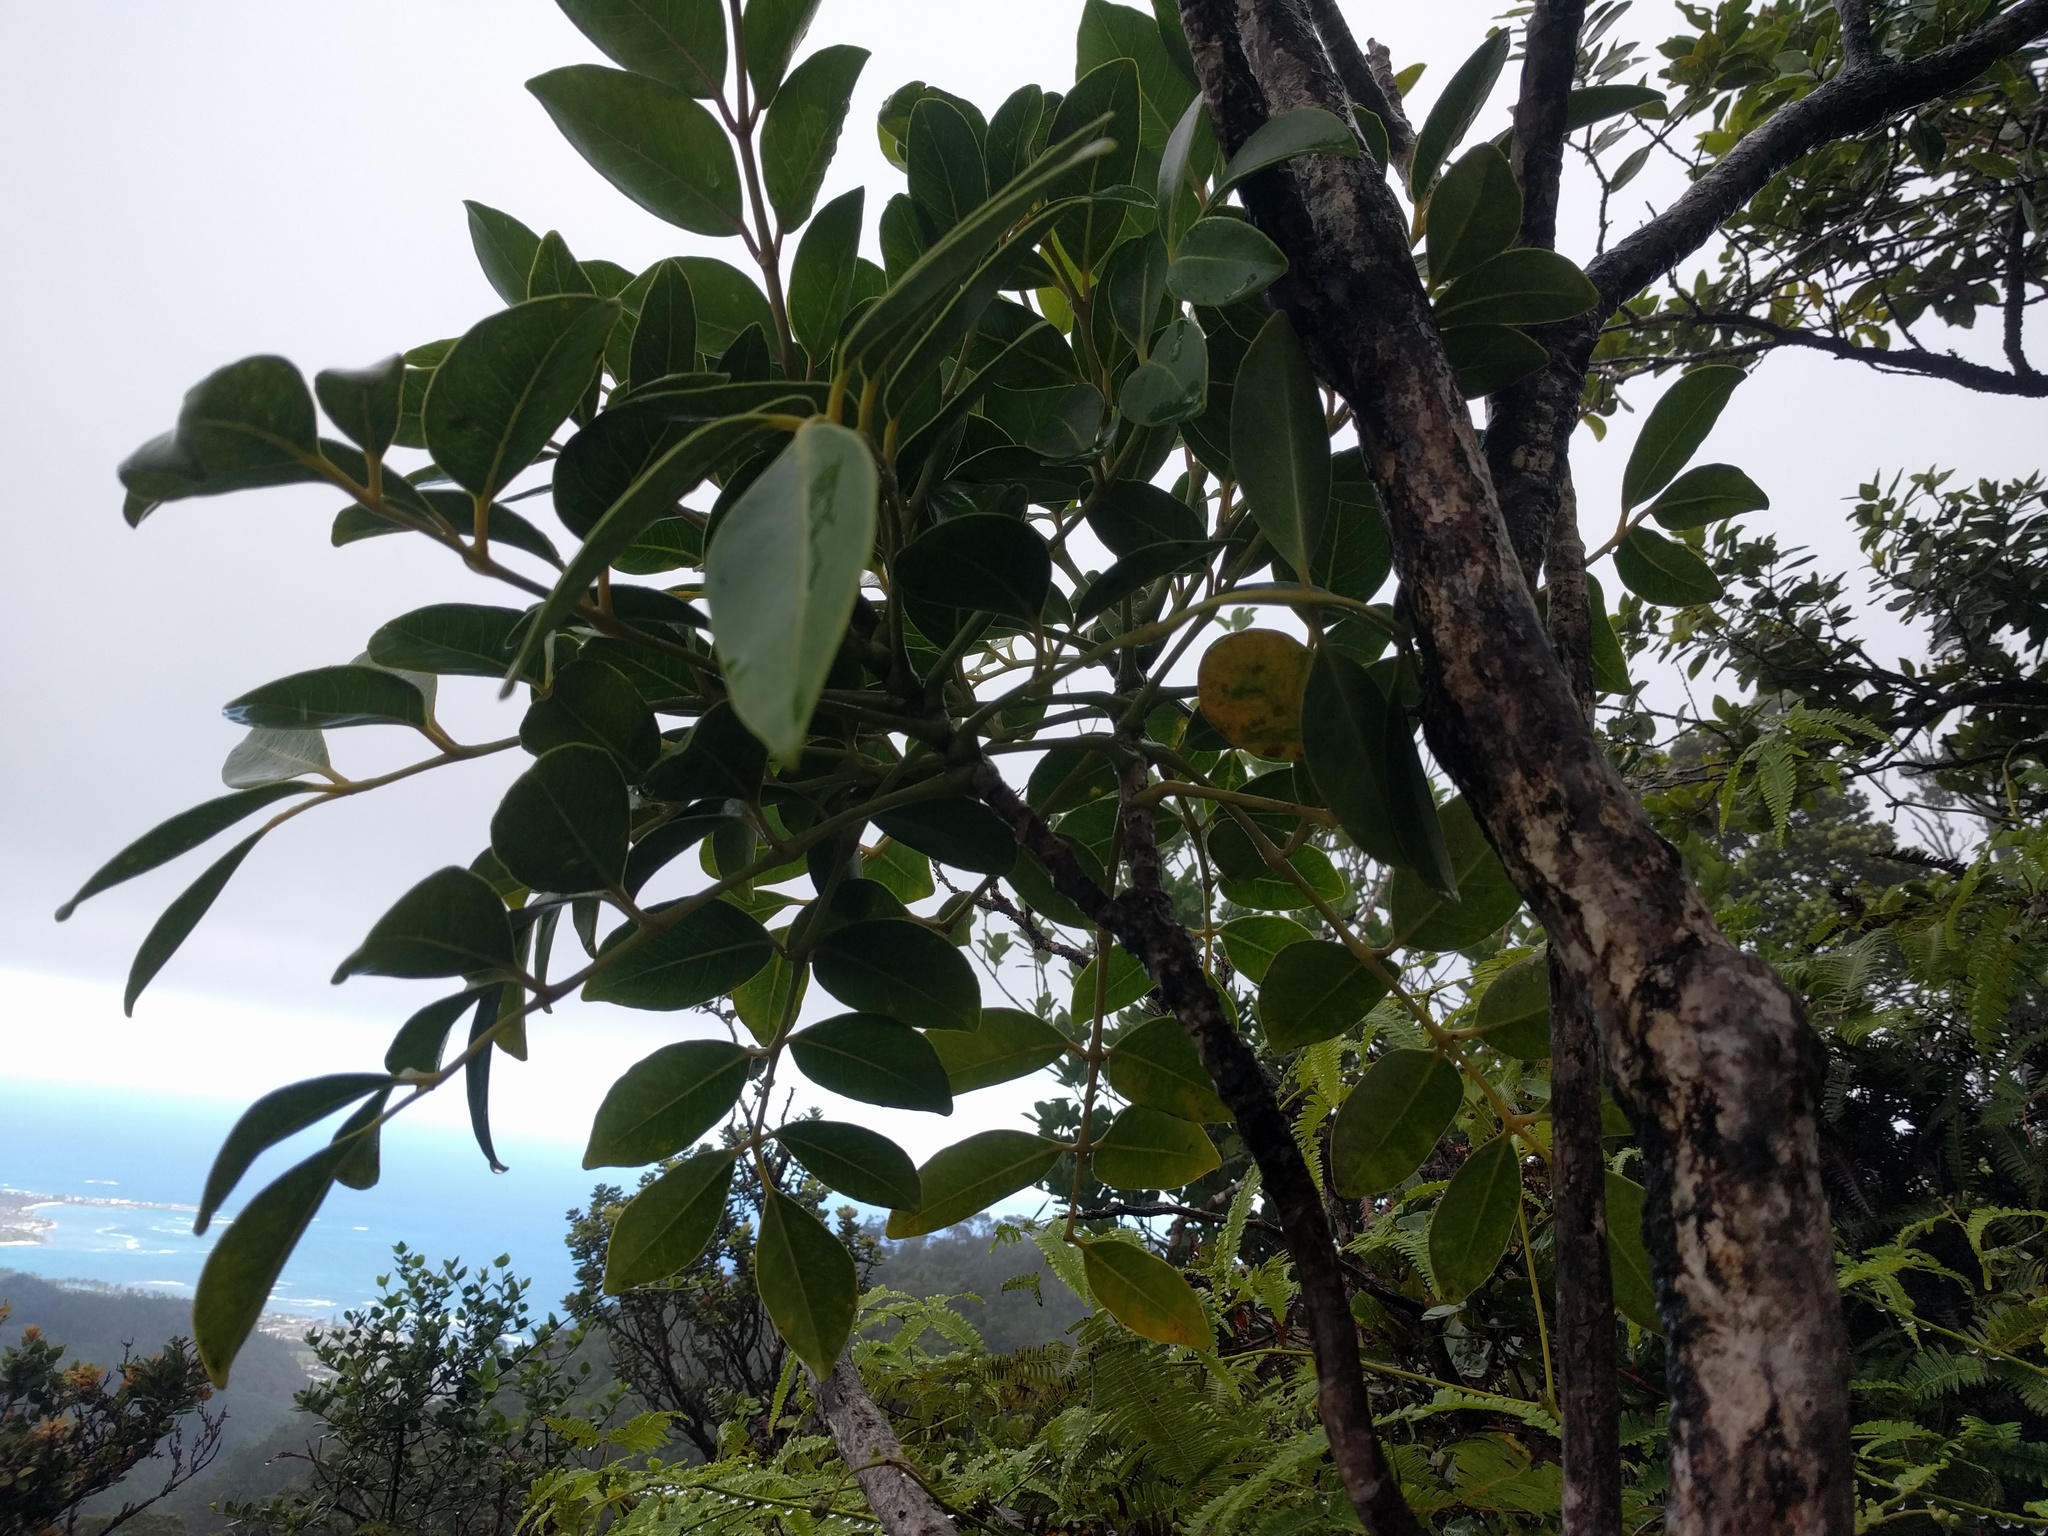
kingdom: Plantae
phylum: Tracheophyta
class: Magnoliopsida
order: Apiales
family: Araliaceae
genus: Polyscias
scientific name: Polyscias oahuensis
